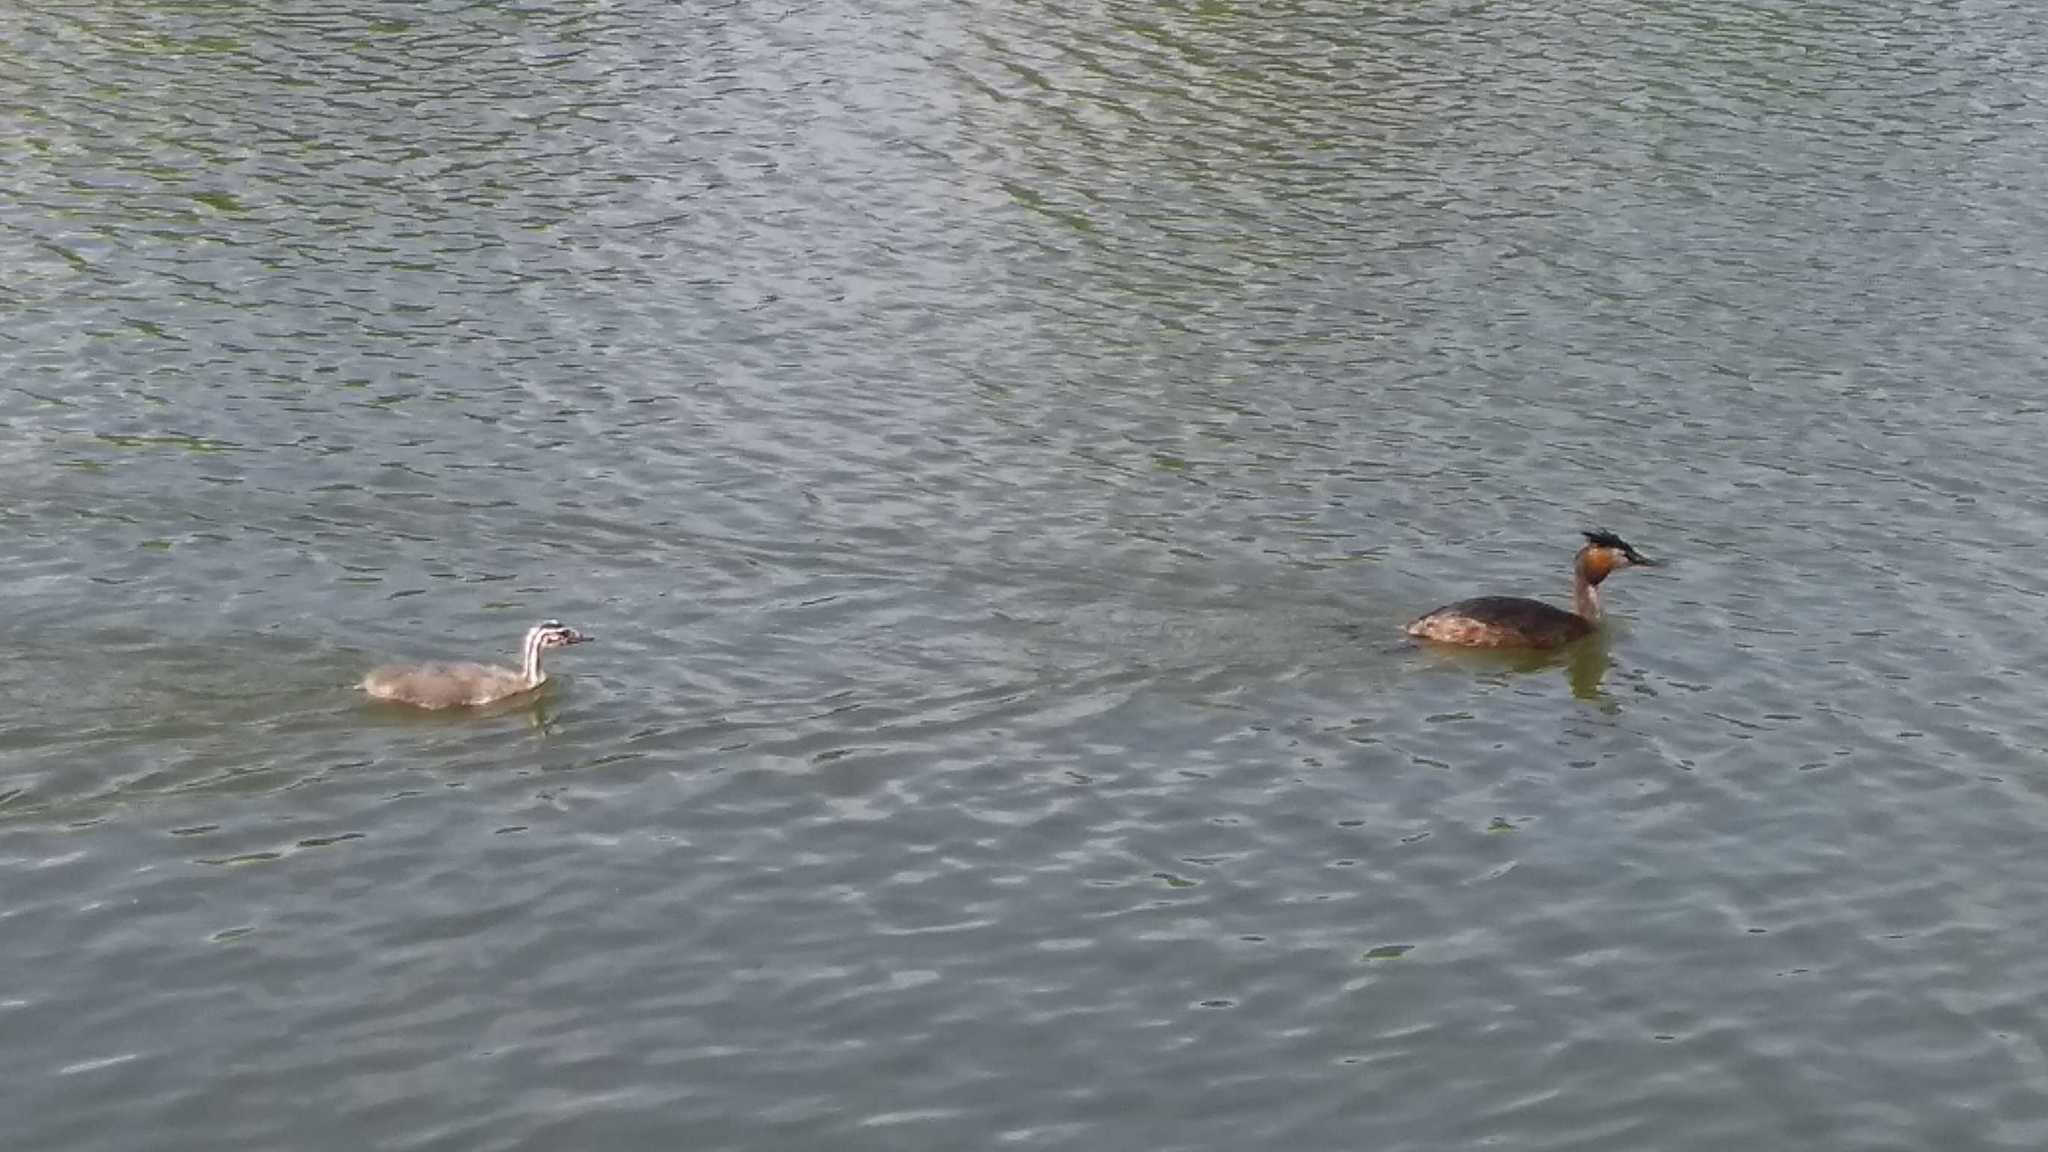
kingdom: Animalia
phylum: Chordata
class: Aves
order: Podicipediformes
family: Podicipedidae
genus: Podiceps
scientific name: Podiceps cristatus
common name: Great crested grebe
